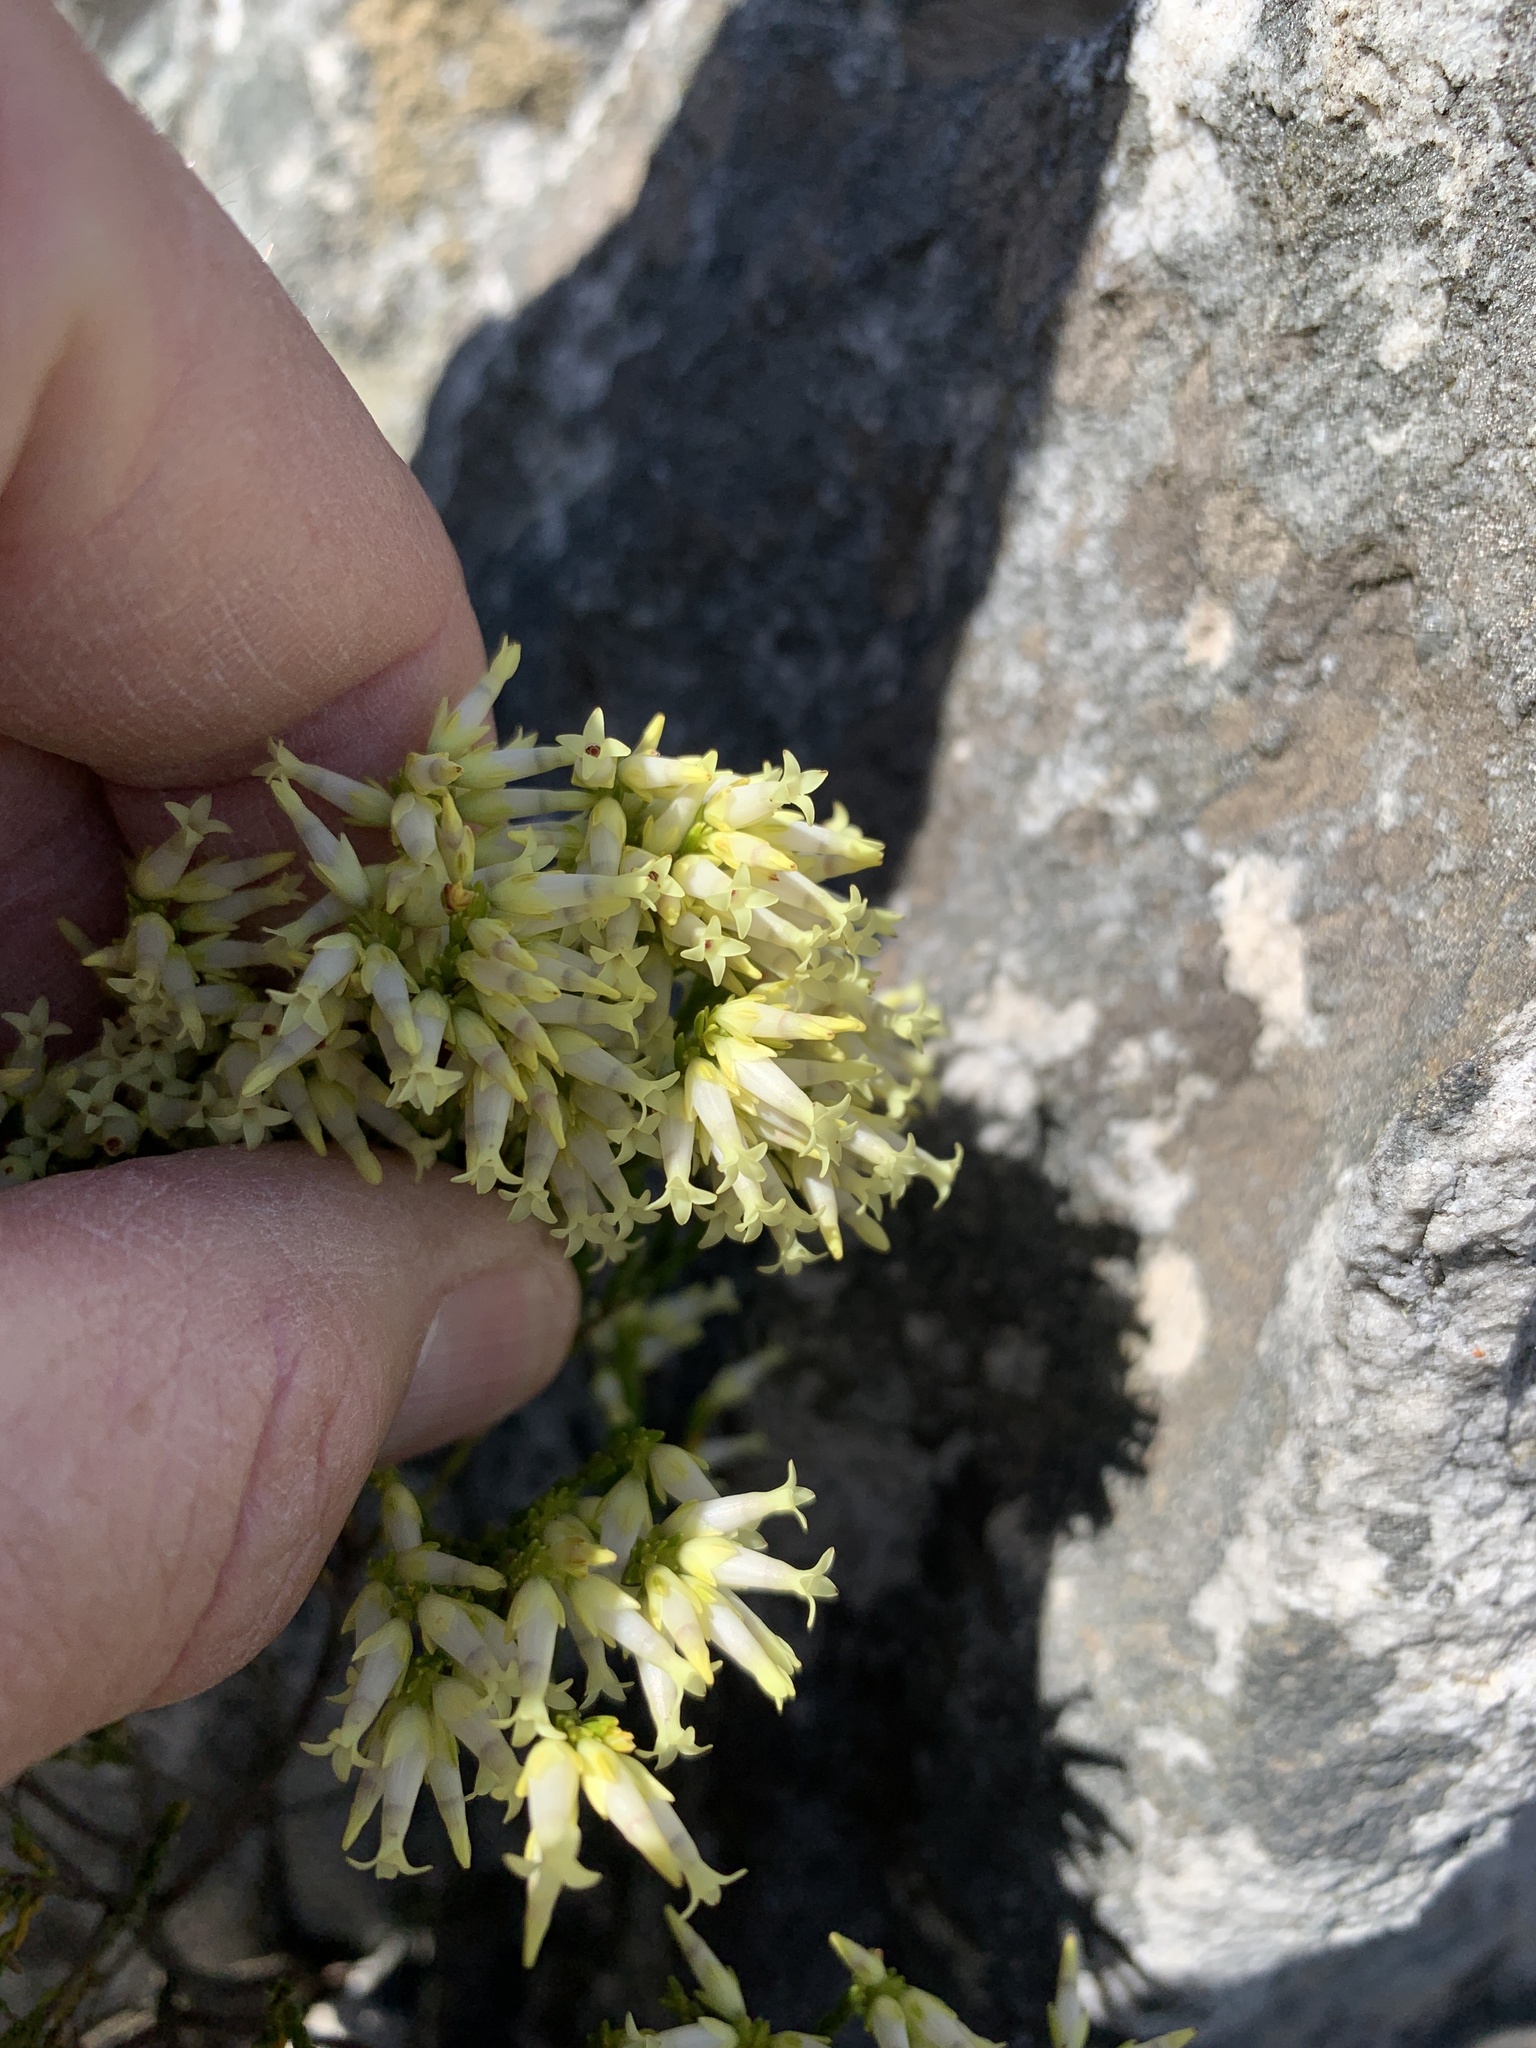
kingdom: Plantae
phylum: Tracheophyta
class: Magnoliopsida
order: Ericales
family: Ericaceae
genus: Erica
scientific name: Erica lutea
